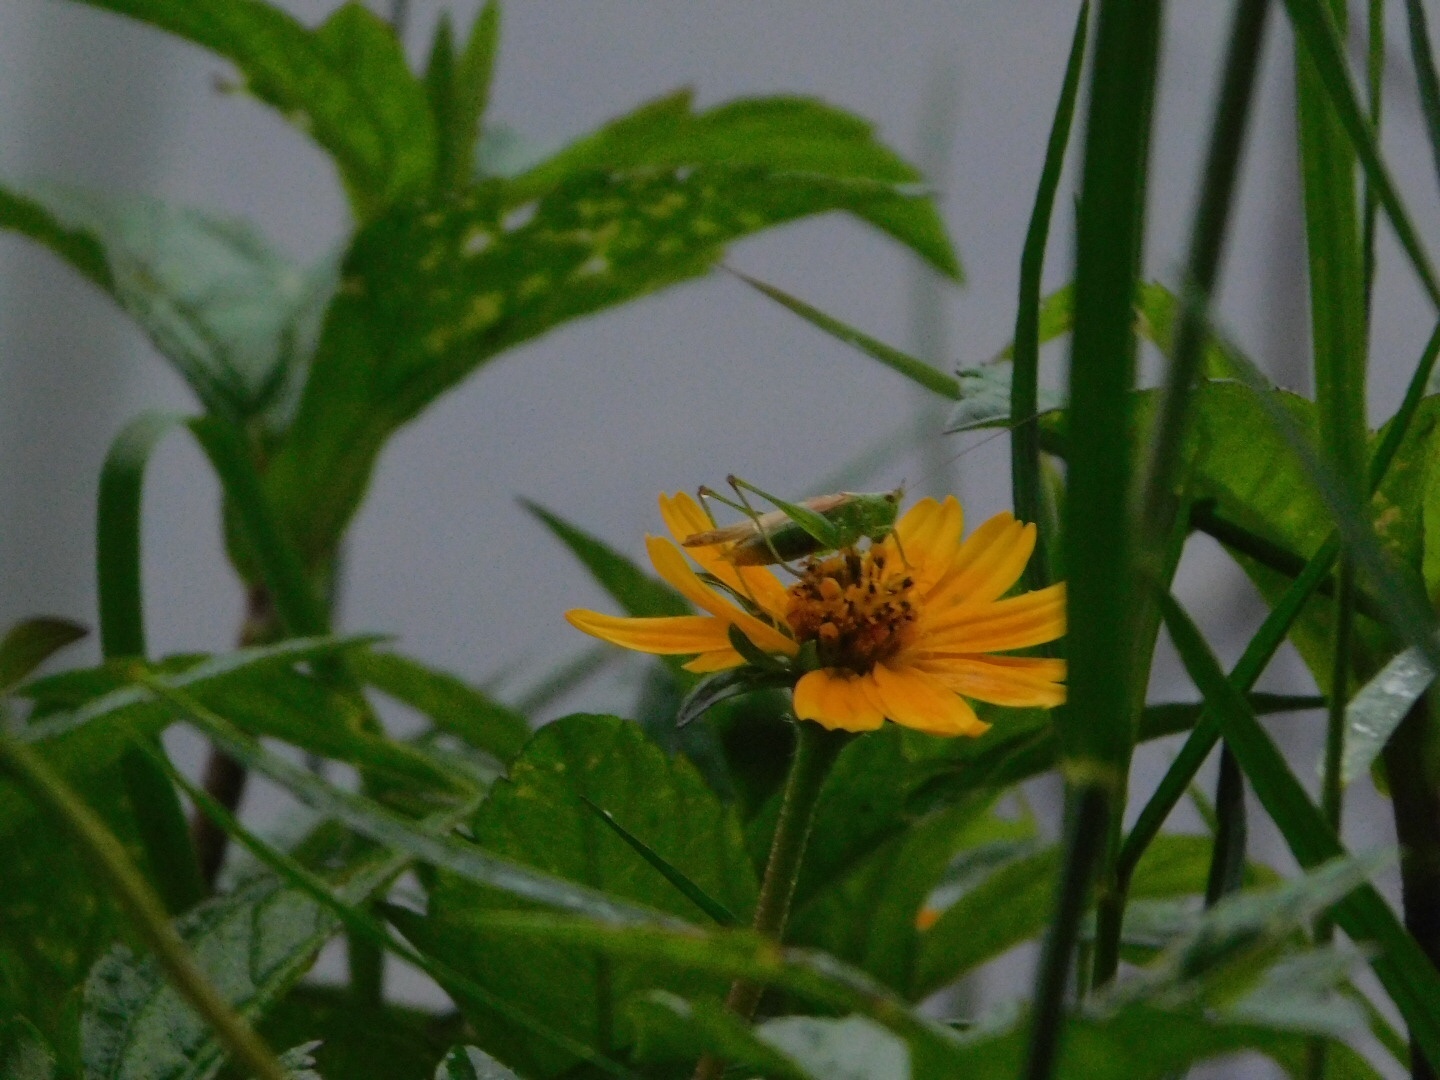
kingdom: Animalia
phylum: Arthropoda
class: Insecta
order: Orthoptera
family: Tettigoniidae
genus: Conocephalus
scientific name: Conocephalus cinereus
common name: Caribbean meadow katydid
